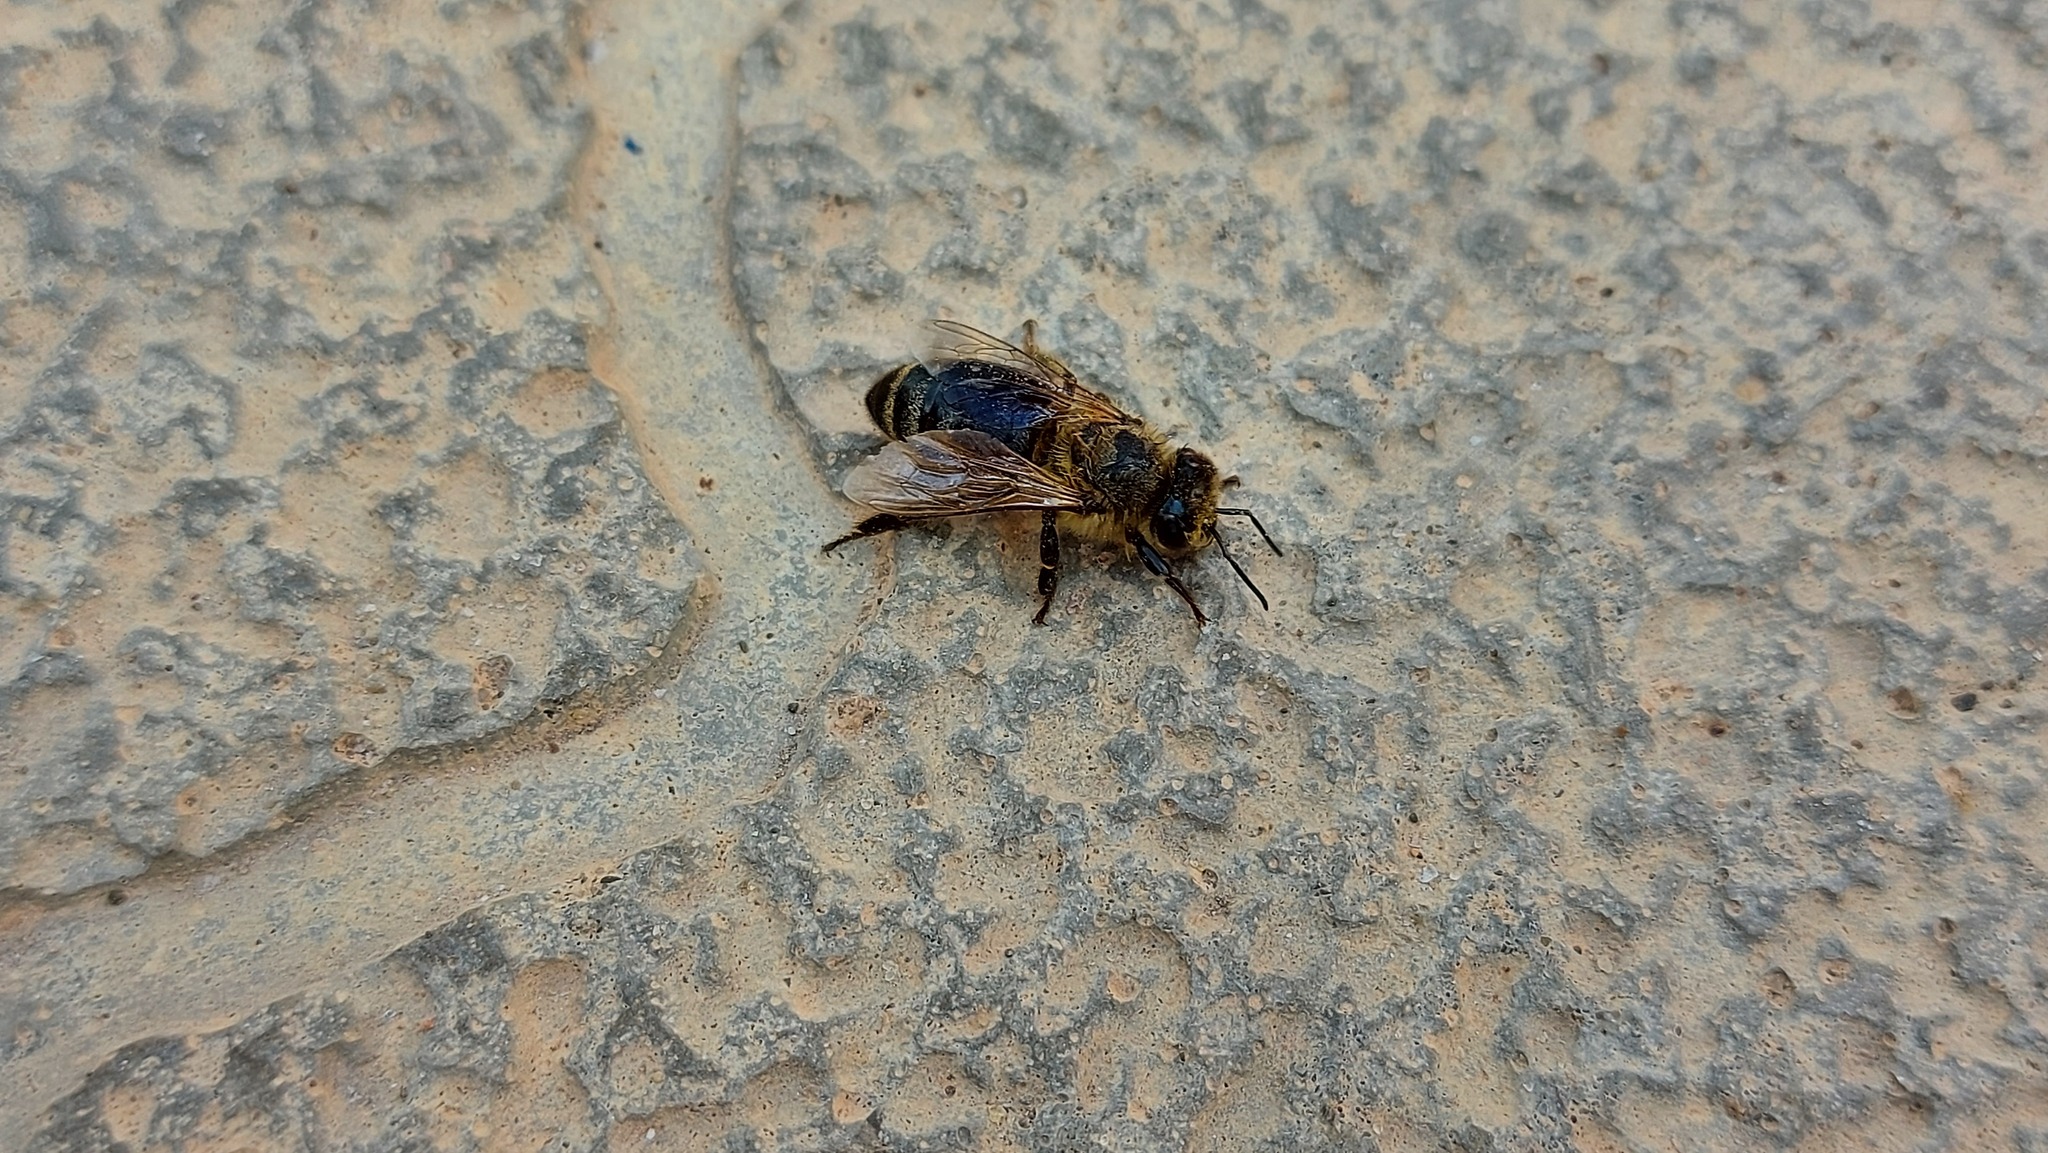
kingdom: Animalia
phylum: Arthropoda
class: Insecta
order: Hymenoptera
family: Apidae
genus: Apis
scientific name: Apis mellifera
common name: Honey bee
